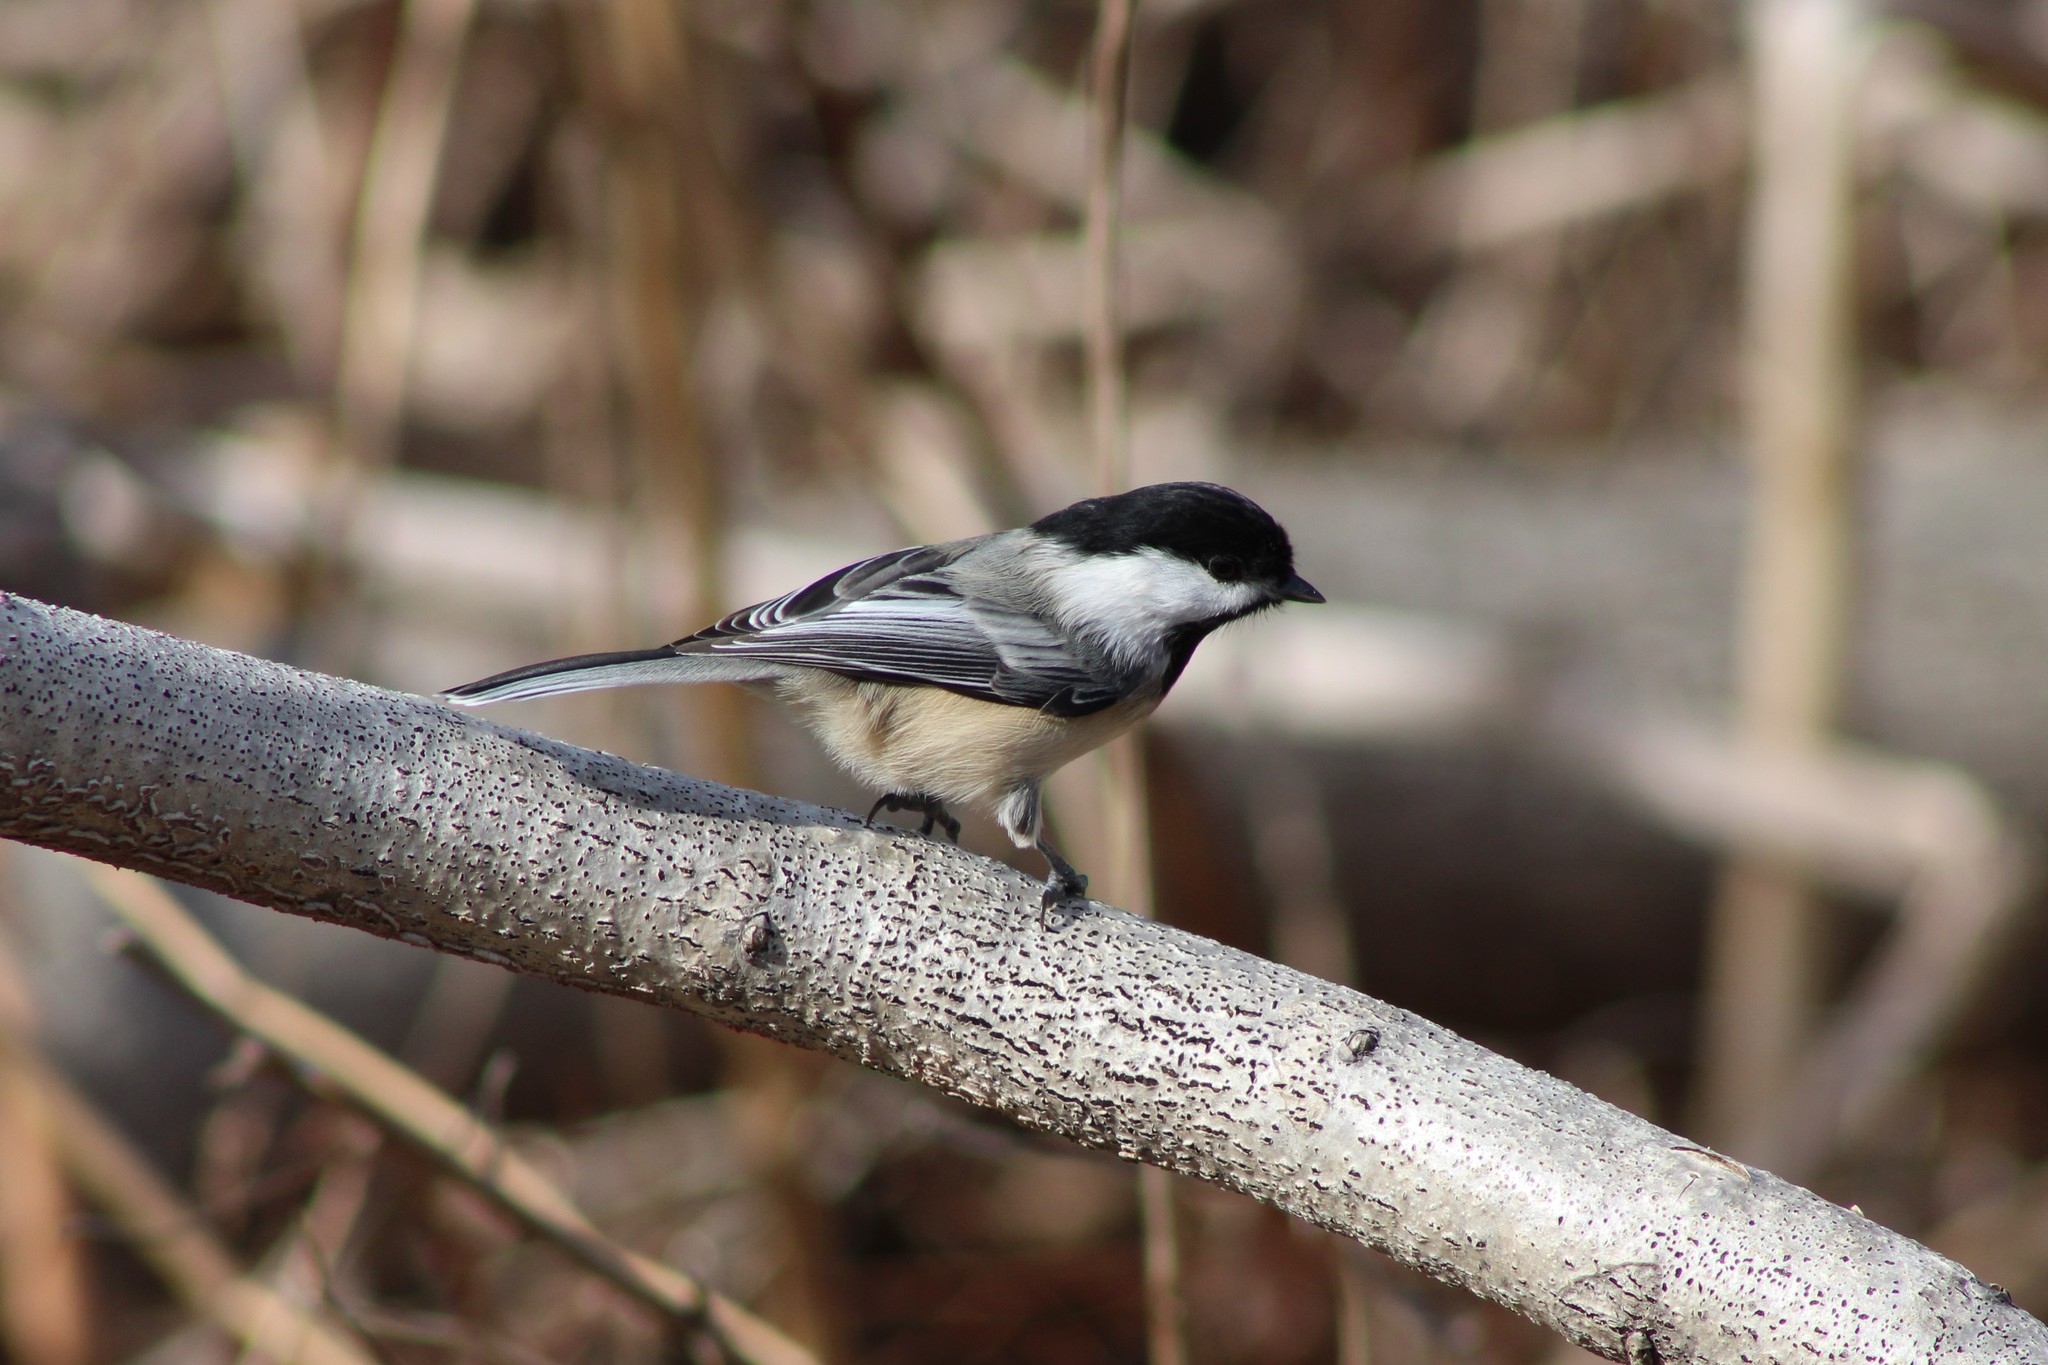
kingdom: Animalia
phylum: Chordata
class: Aves
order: Passeriformes
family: Paridae
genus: Poecile
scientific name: Poecile atricapillus
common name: Black-capped chickadee
